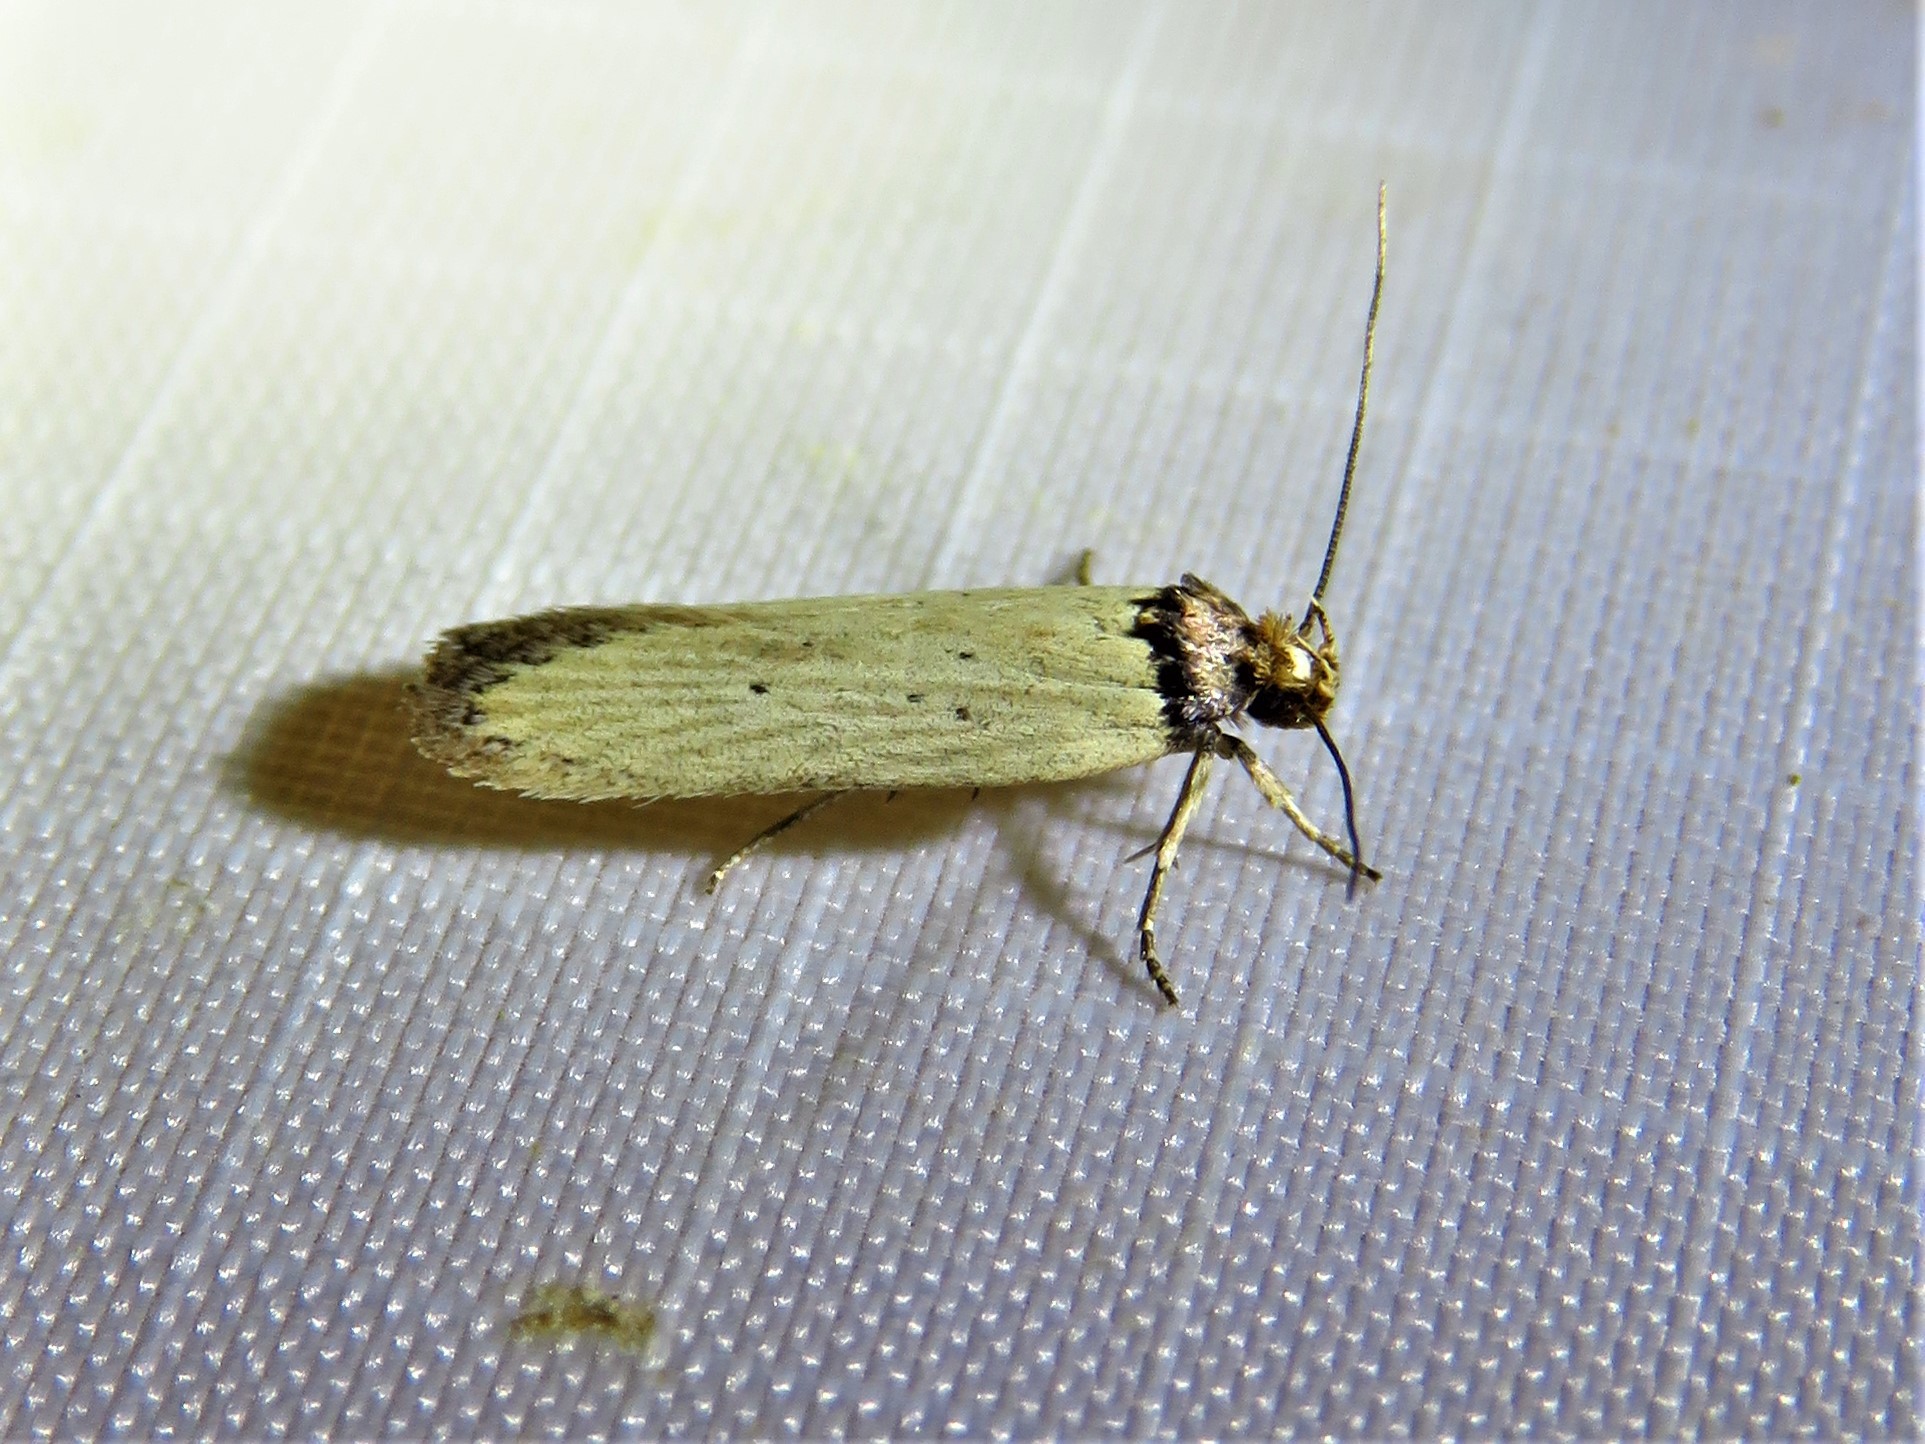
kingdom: Animalia
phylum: Arthropoda
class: Insecta
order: Lepidoptera
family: Depressariidae
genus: Exaeretia
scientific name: Exaeretia gracilis
